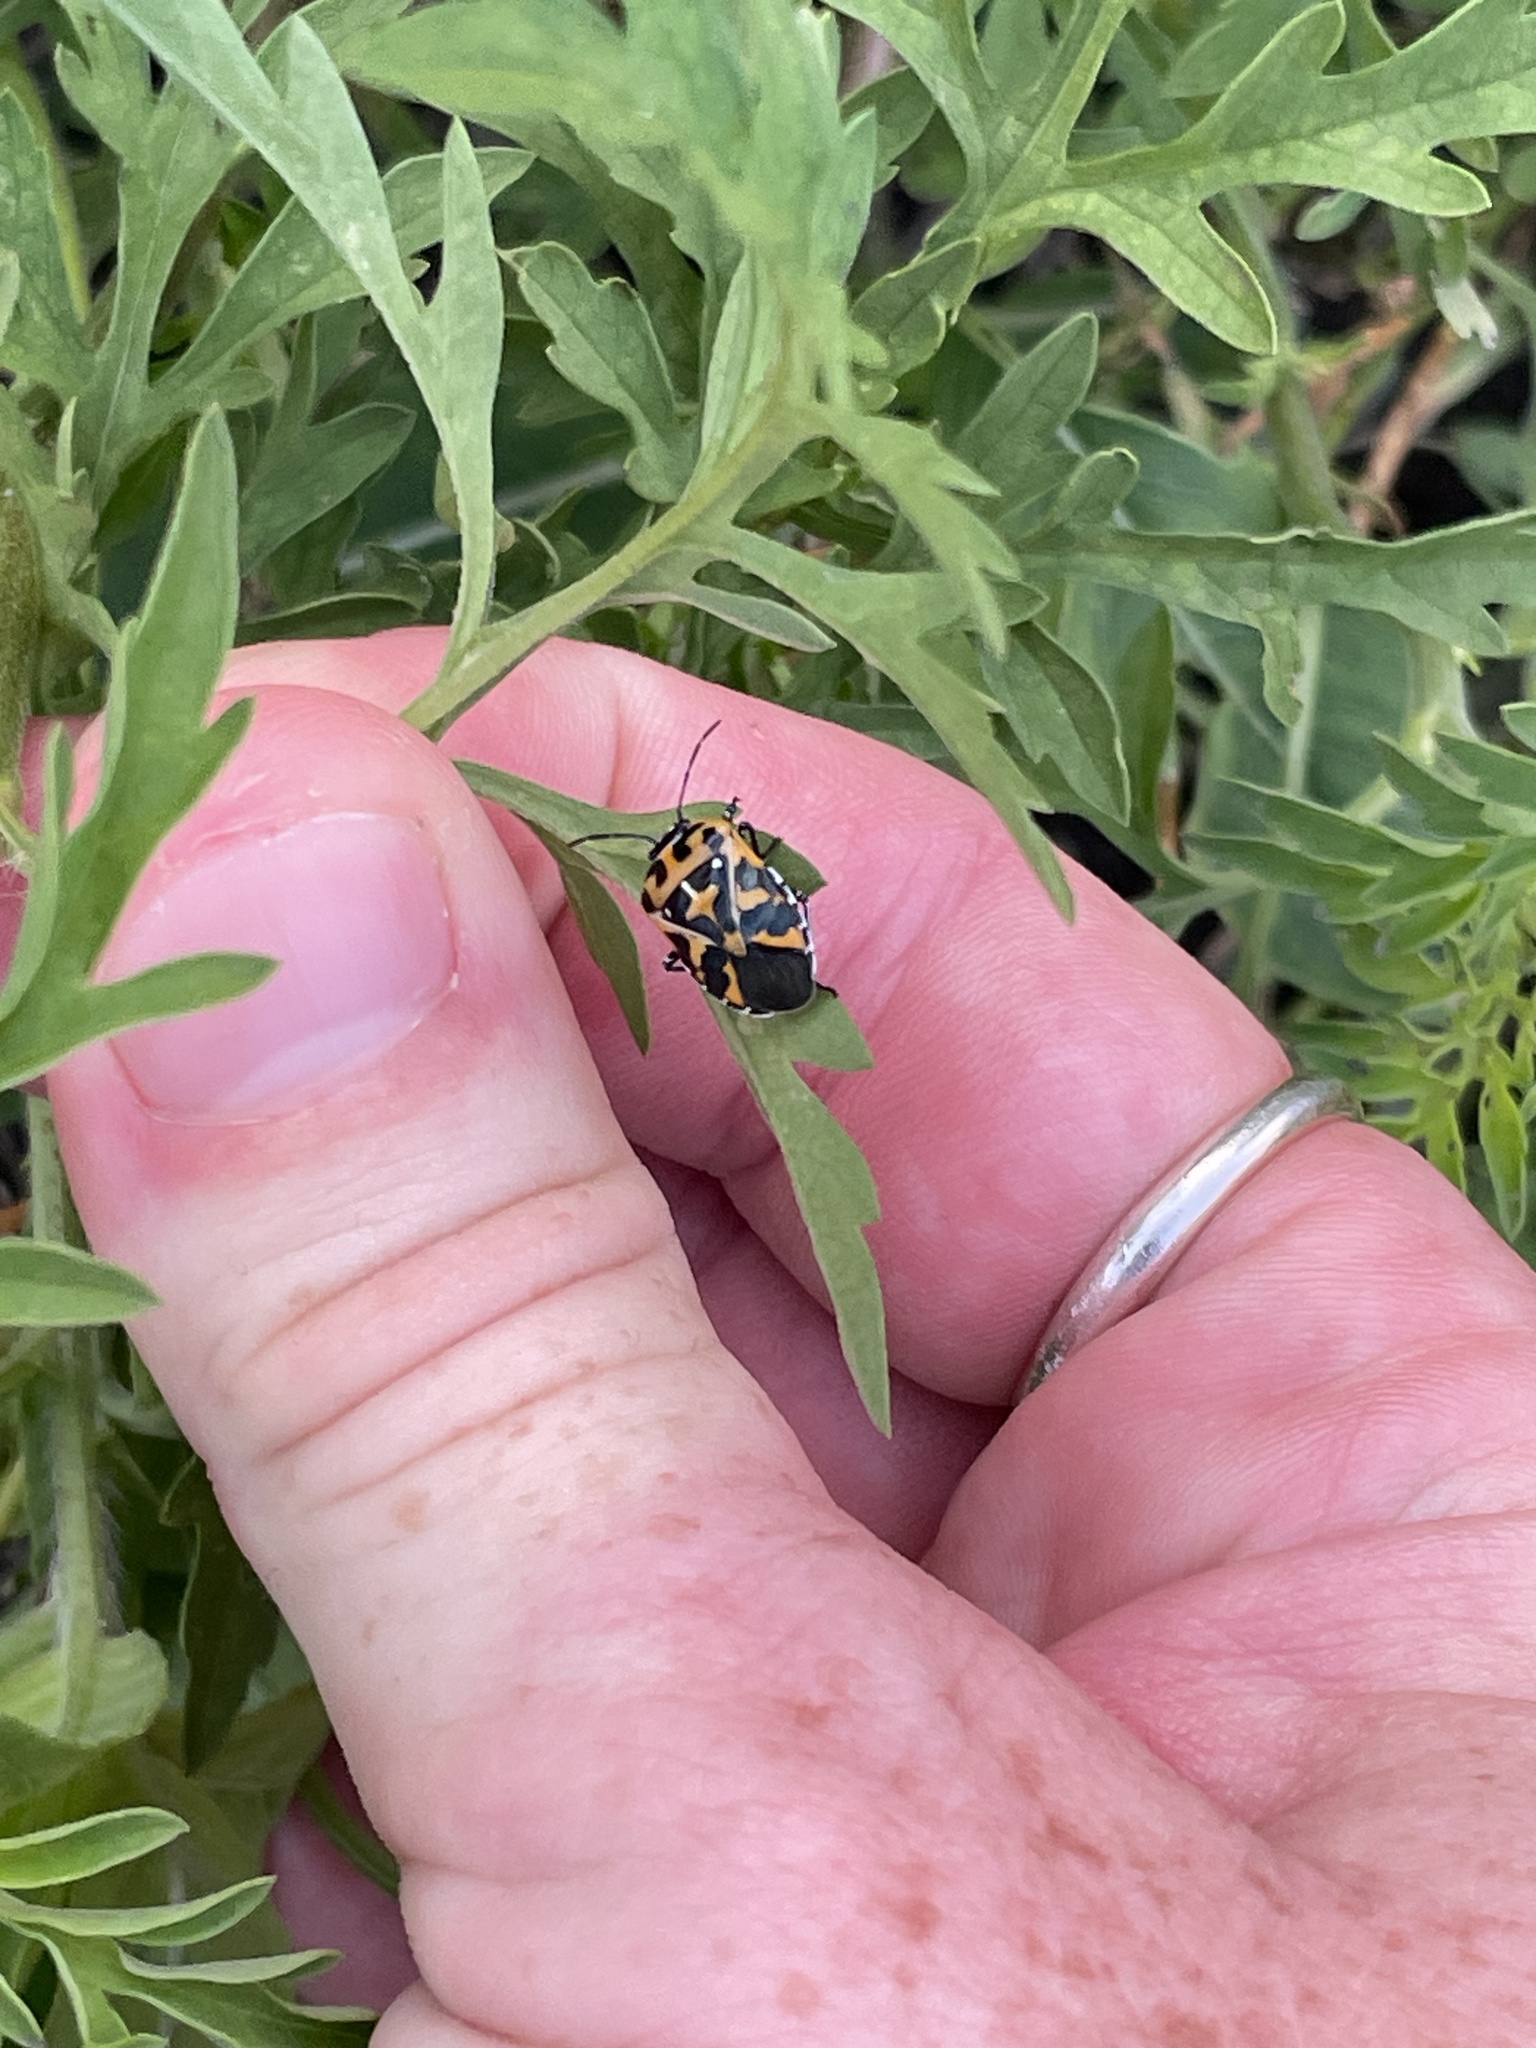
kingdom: Animalia
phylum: Arthropoda
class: Insecta
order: Hemiptera
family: Pentatomidae
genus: Murgantia
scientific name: Murgantia histrionica
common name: Harlequin bug
